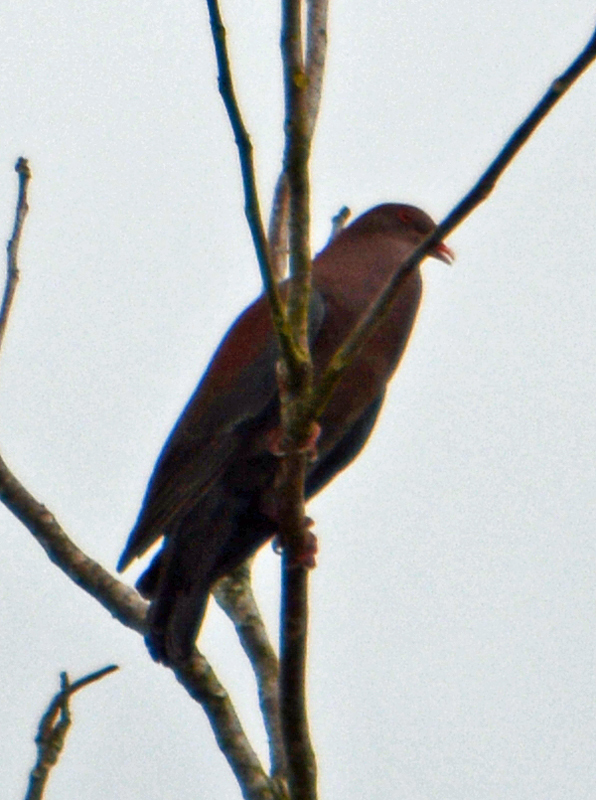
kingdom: Animalia
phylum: Chordata
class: Aves
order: Columbiformes
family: Columbidae
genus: Patagioenas
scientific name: Patagioenas flavirostris
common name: Red-billed pigeon
